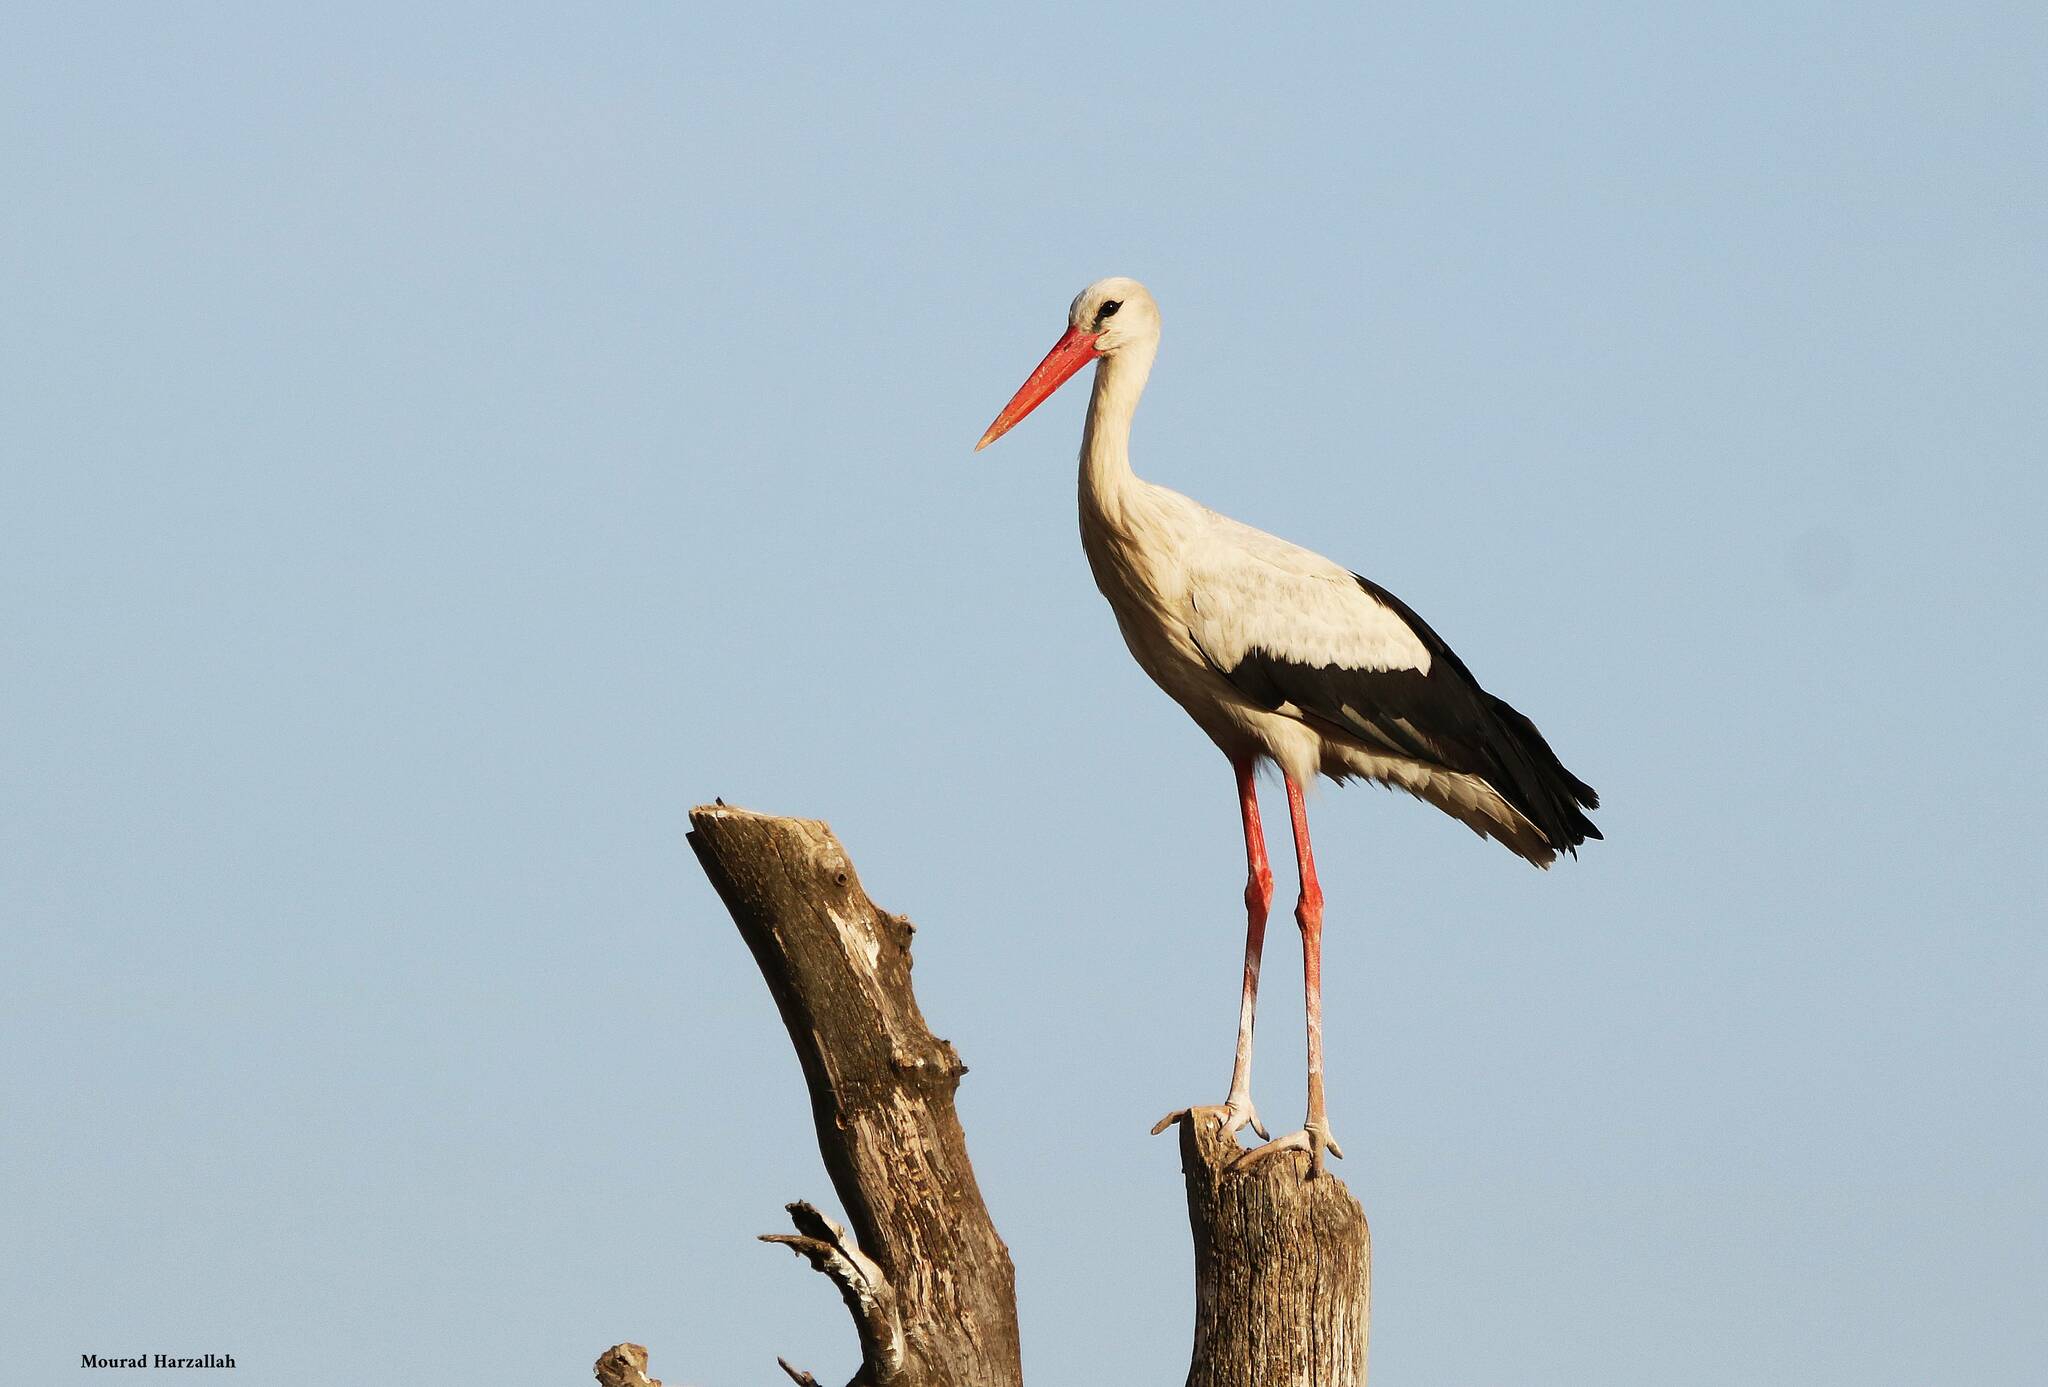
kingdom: Animalia
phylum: Chordata
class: Aves
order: Ciconiiformes
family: Ciconiidae
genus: Ciconia
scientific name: Ciconia ciconia
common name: White stork
